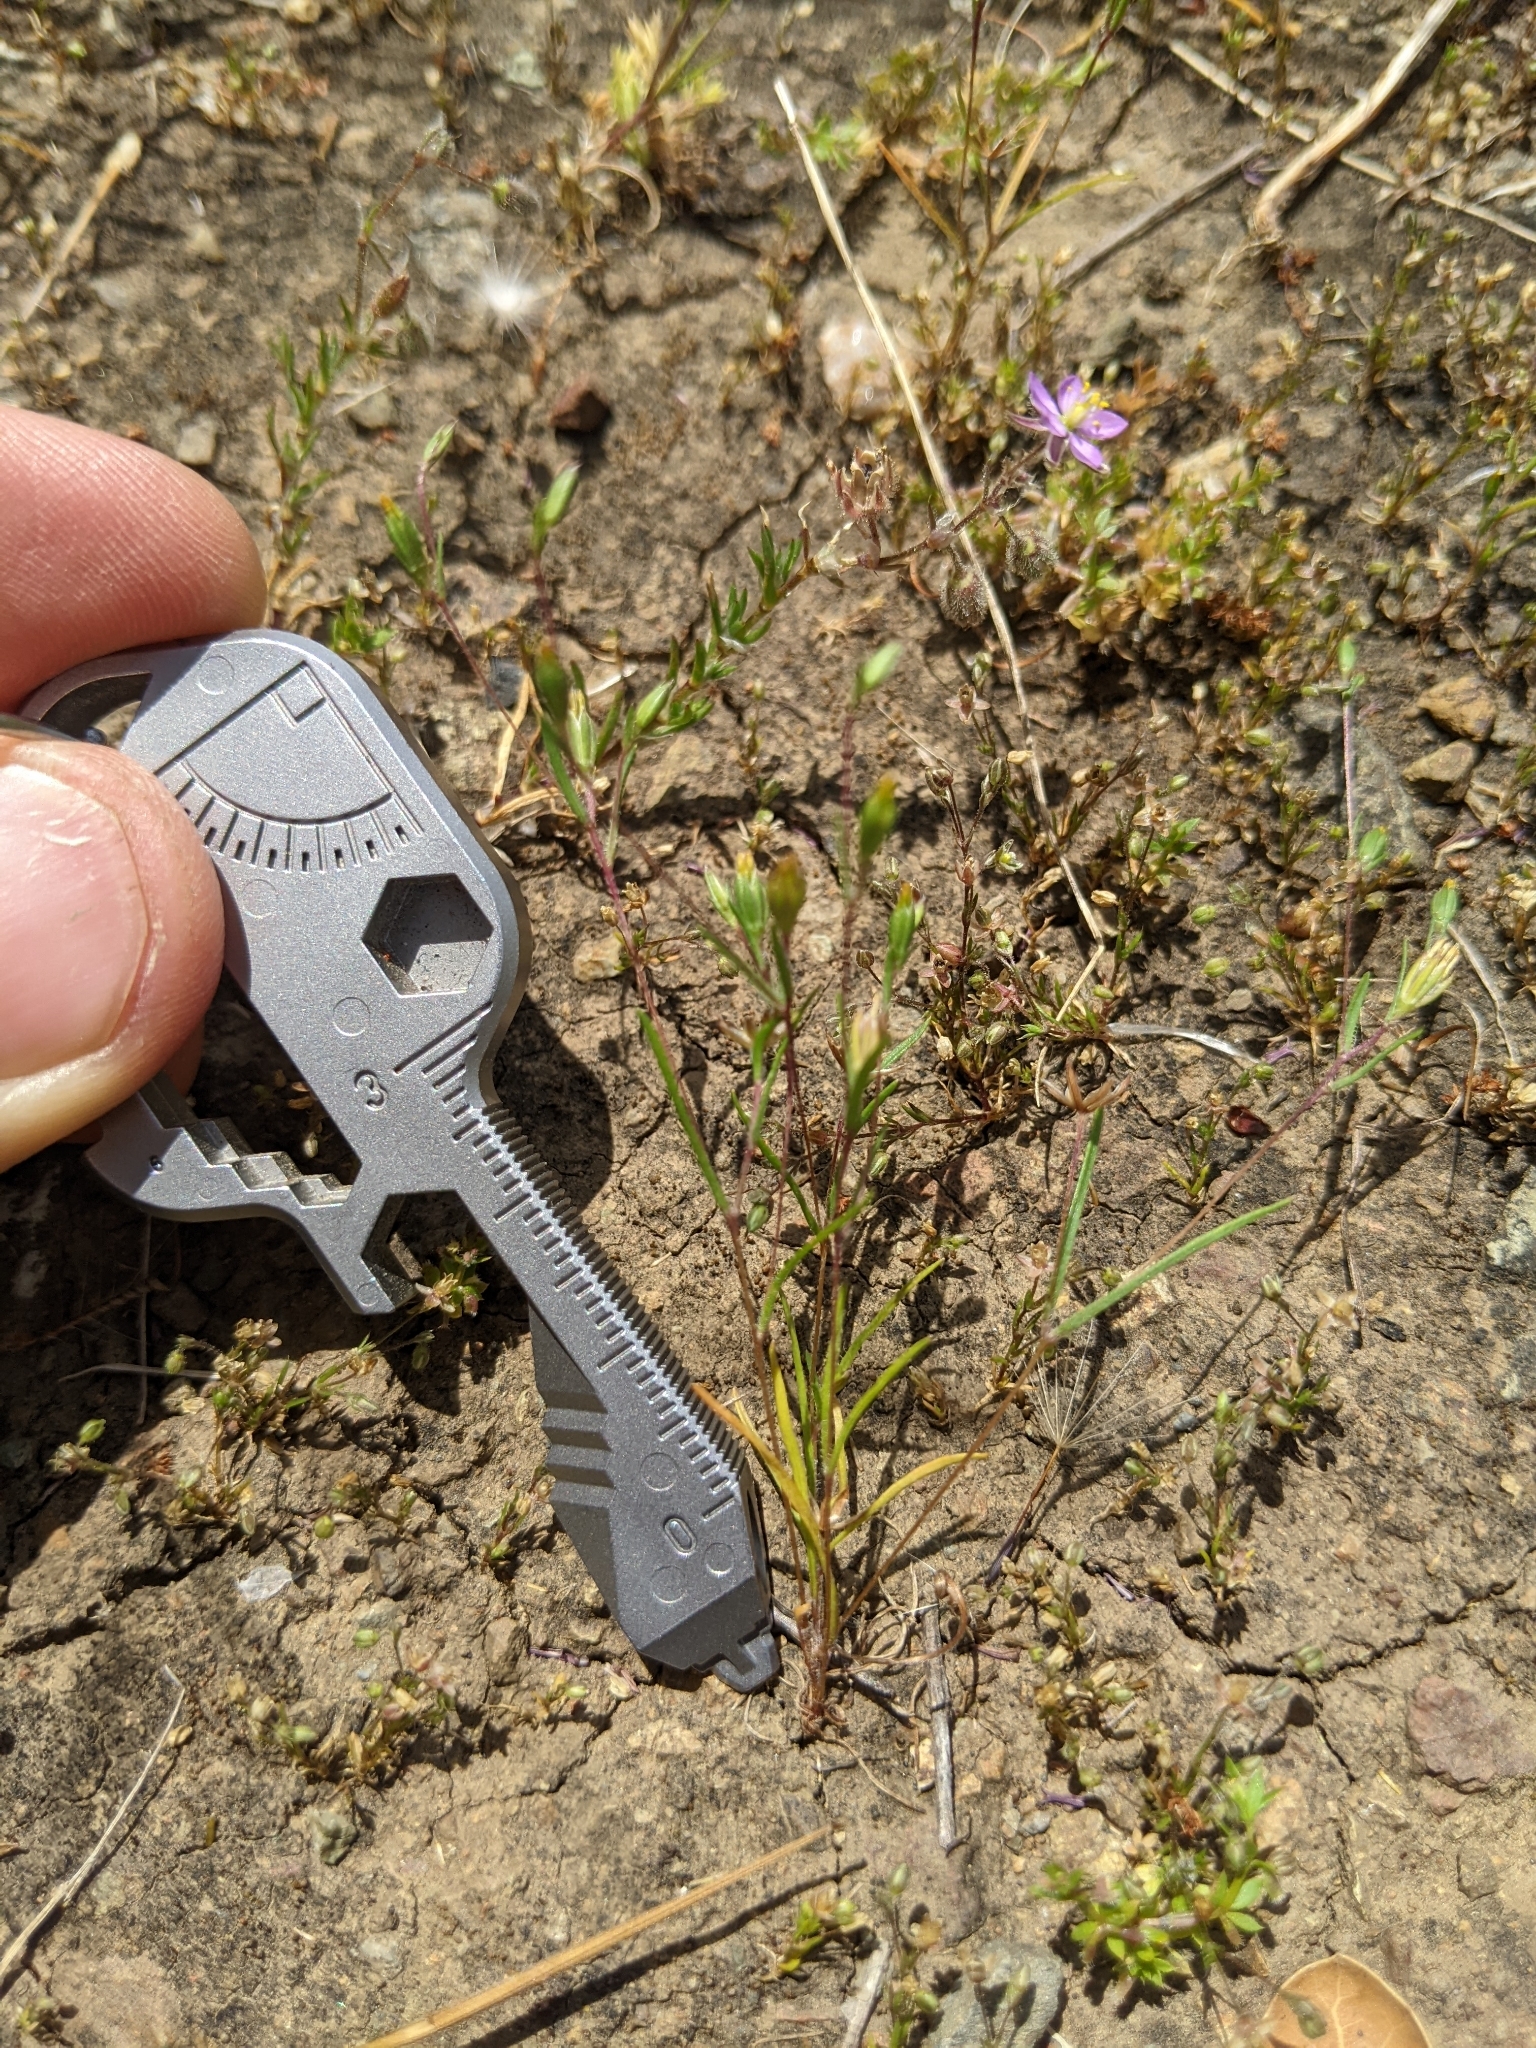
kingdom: Plantae
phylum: Tracheophyta
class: Magnoliopsida
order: Asterales
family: Asteraceae
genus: Pentachaeta
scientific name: Pentachaeta alsinoides
